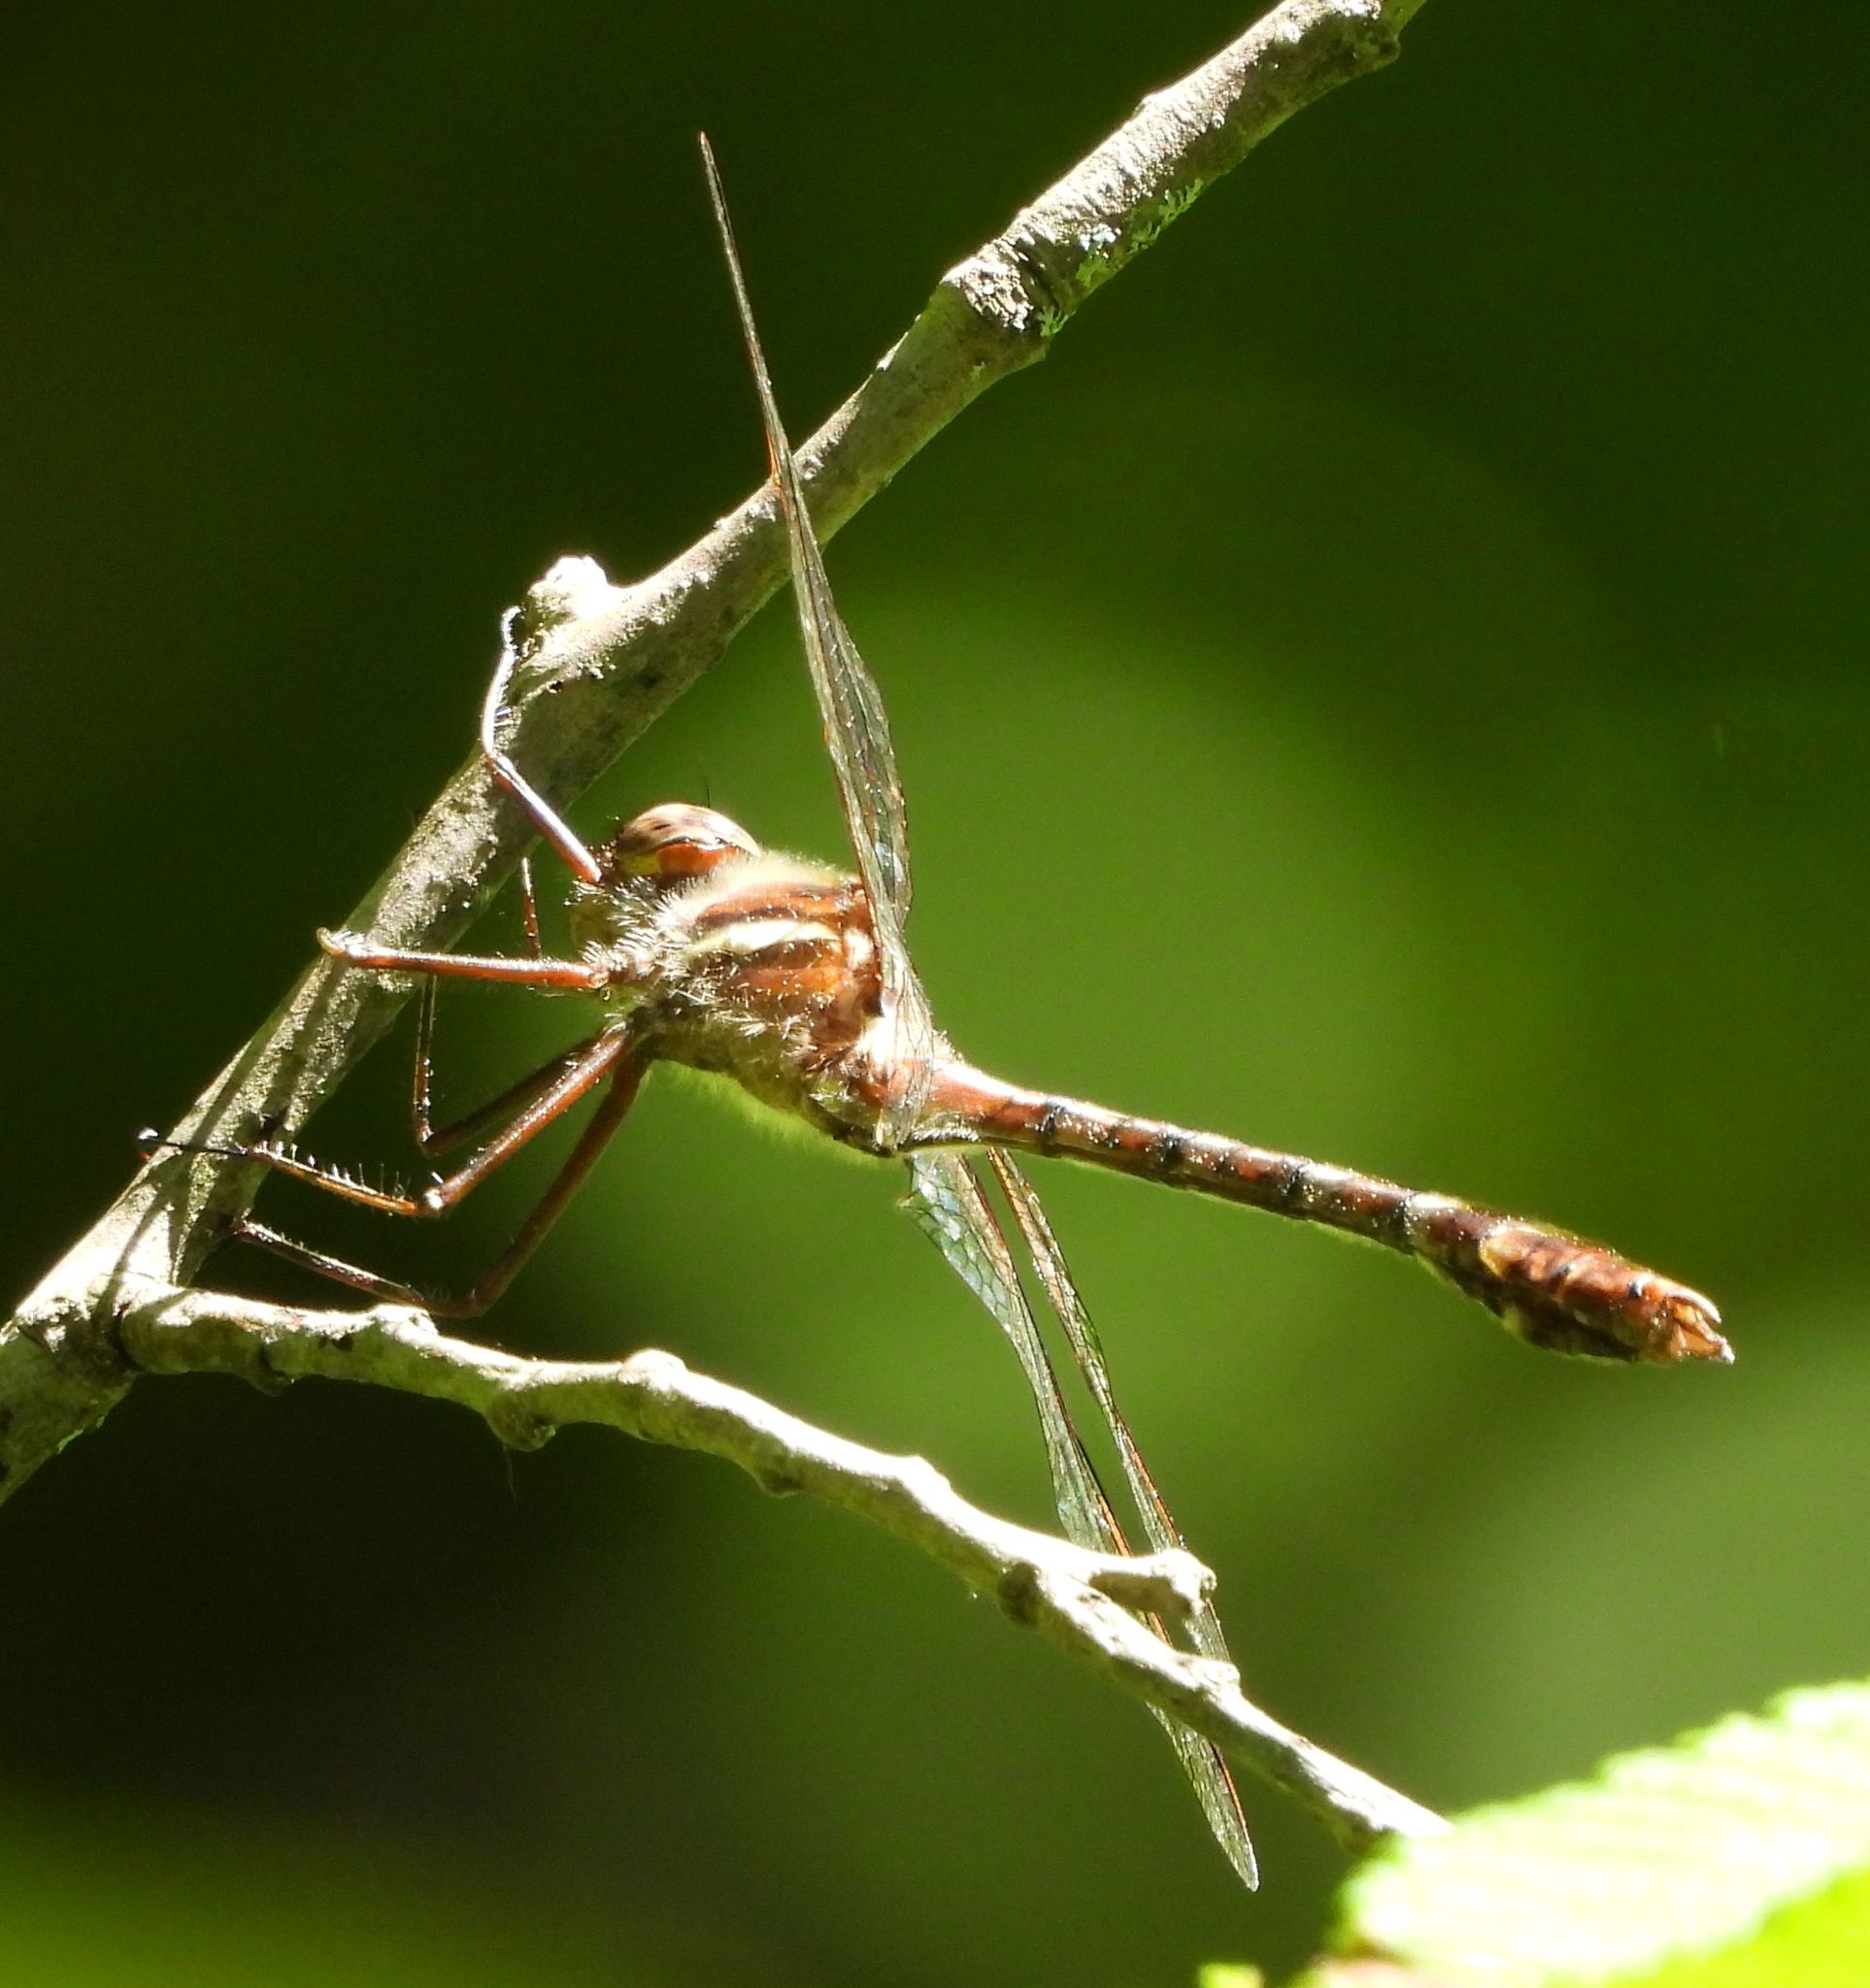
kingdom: Animalia
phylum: Arthropoda
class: Insecta
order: Odonata
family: Macromiidae
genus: Didymops
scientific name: Didymops transversa
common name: Stream cruiser
